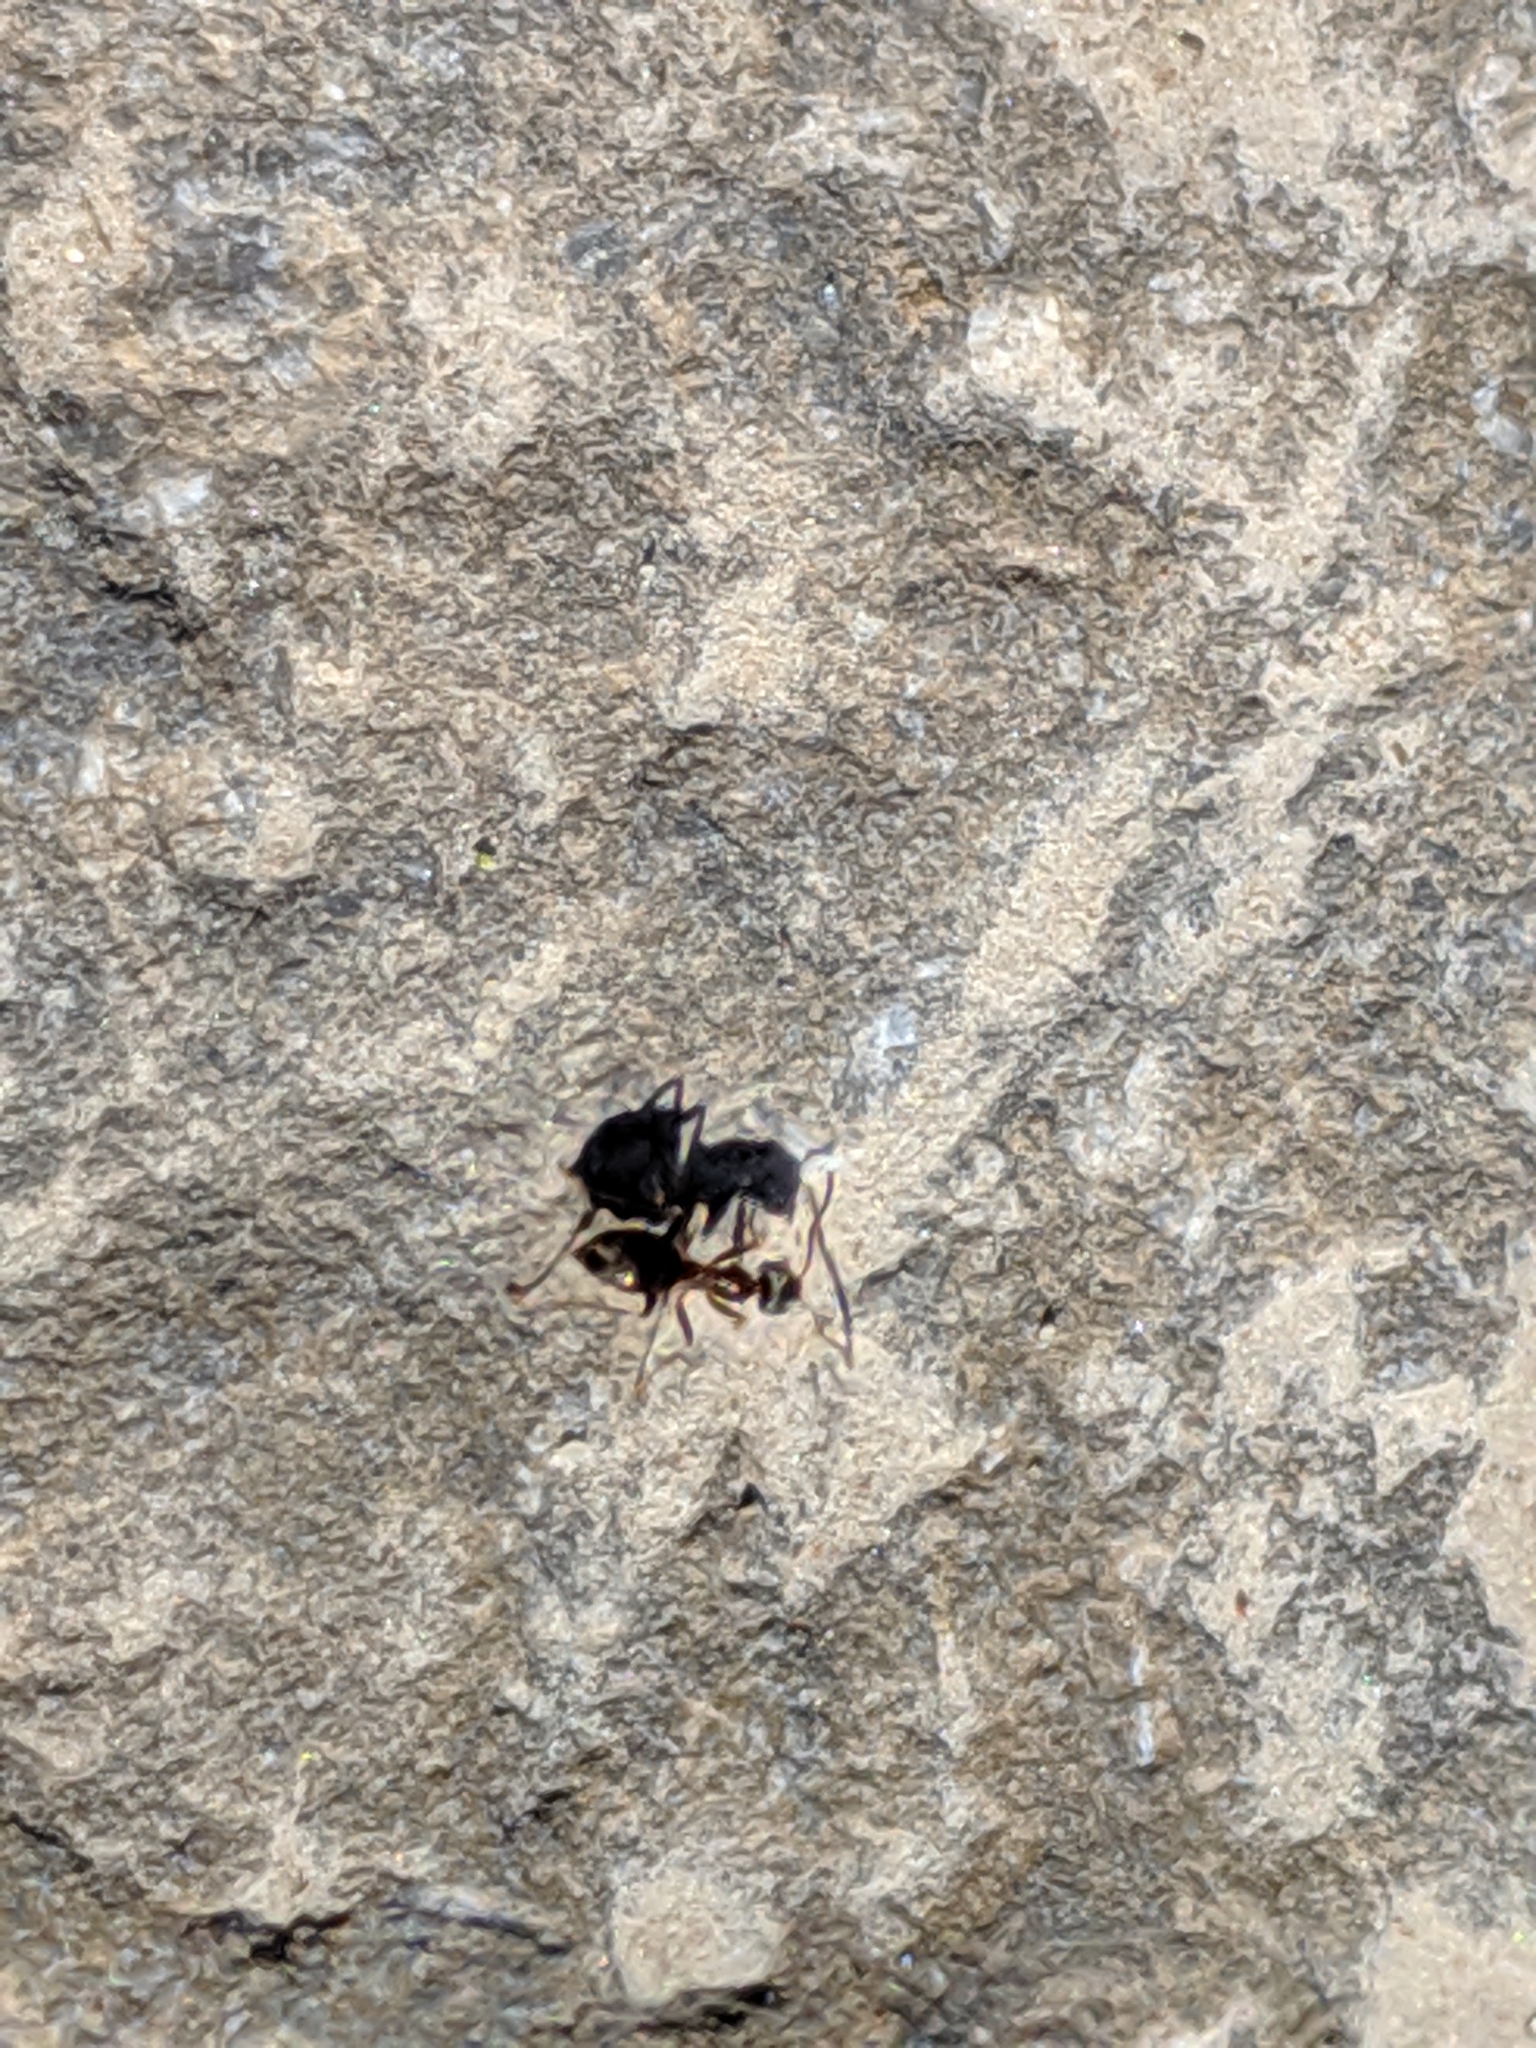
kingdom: Animalia
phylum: Arthropoda
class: Insecta
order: Hymenoptera
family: Formicidae
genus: Lasius
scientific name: Lasius
